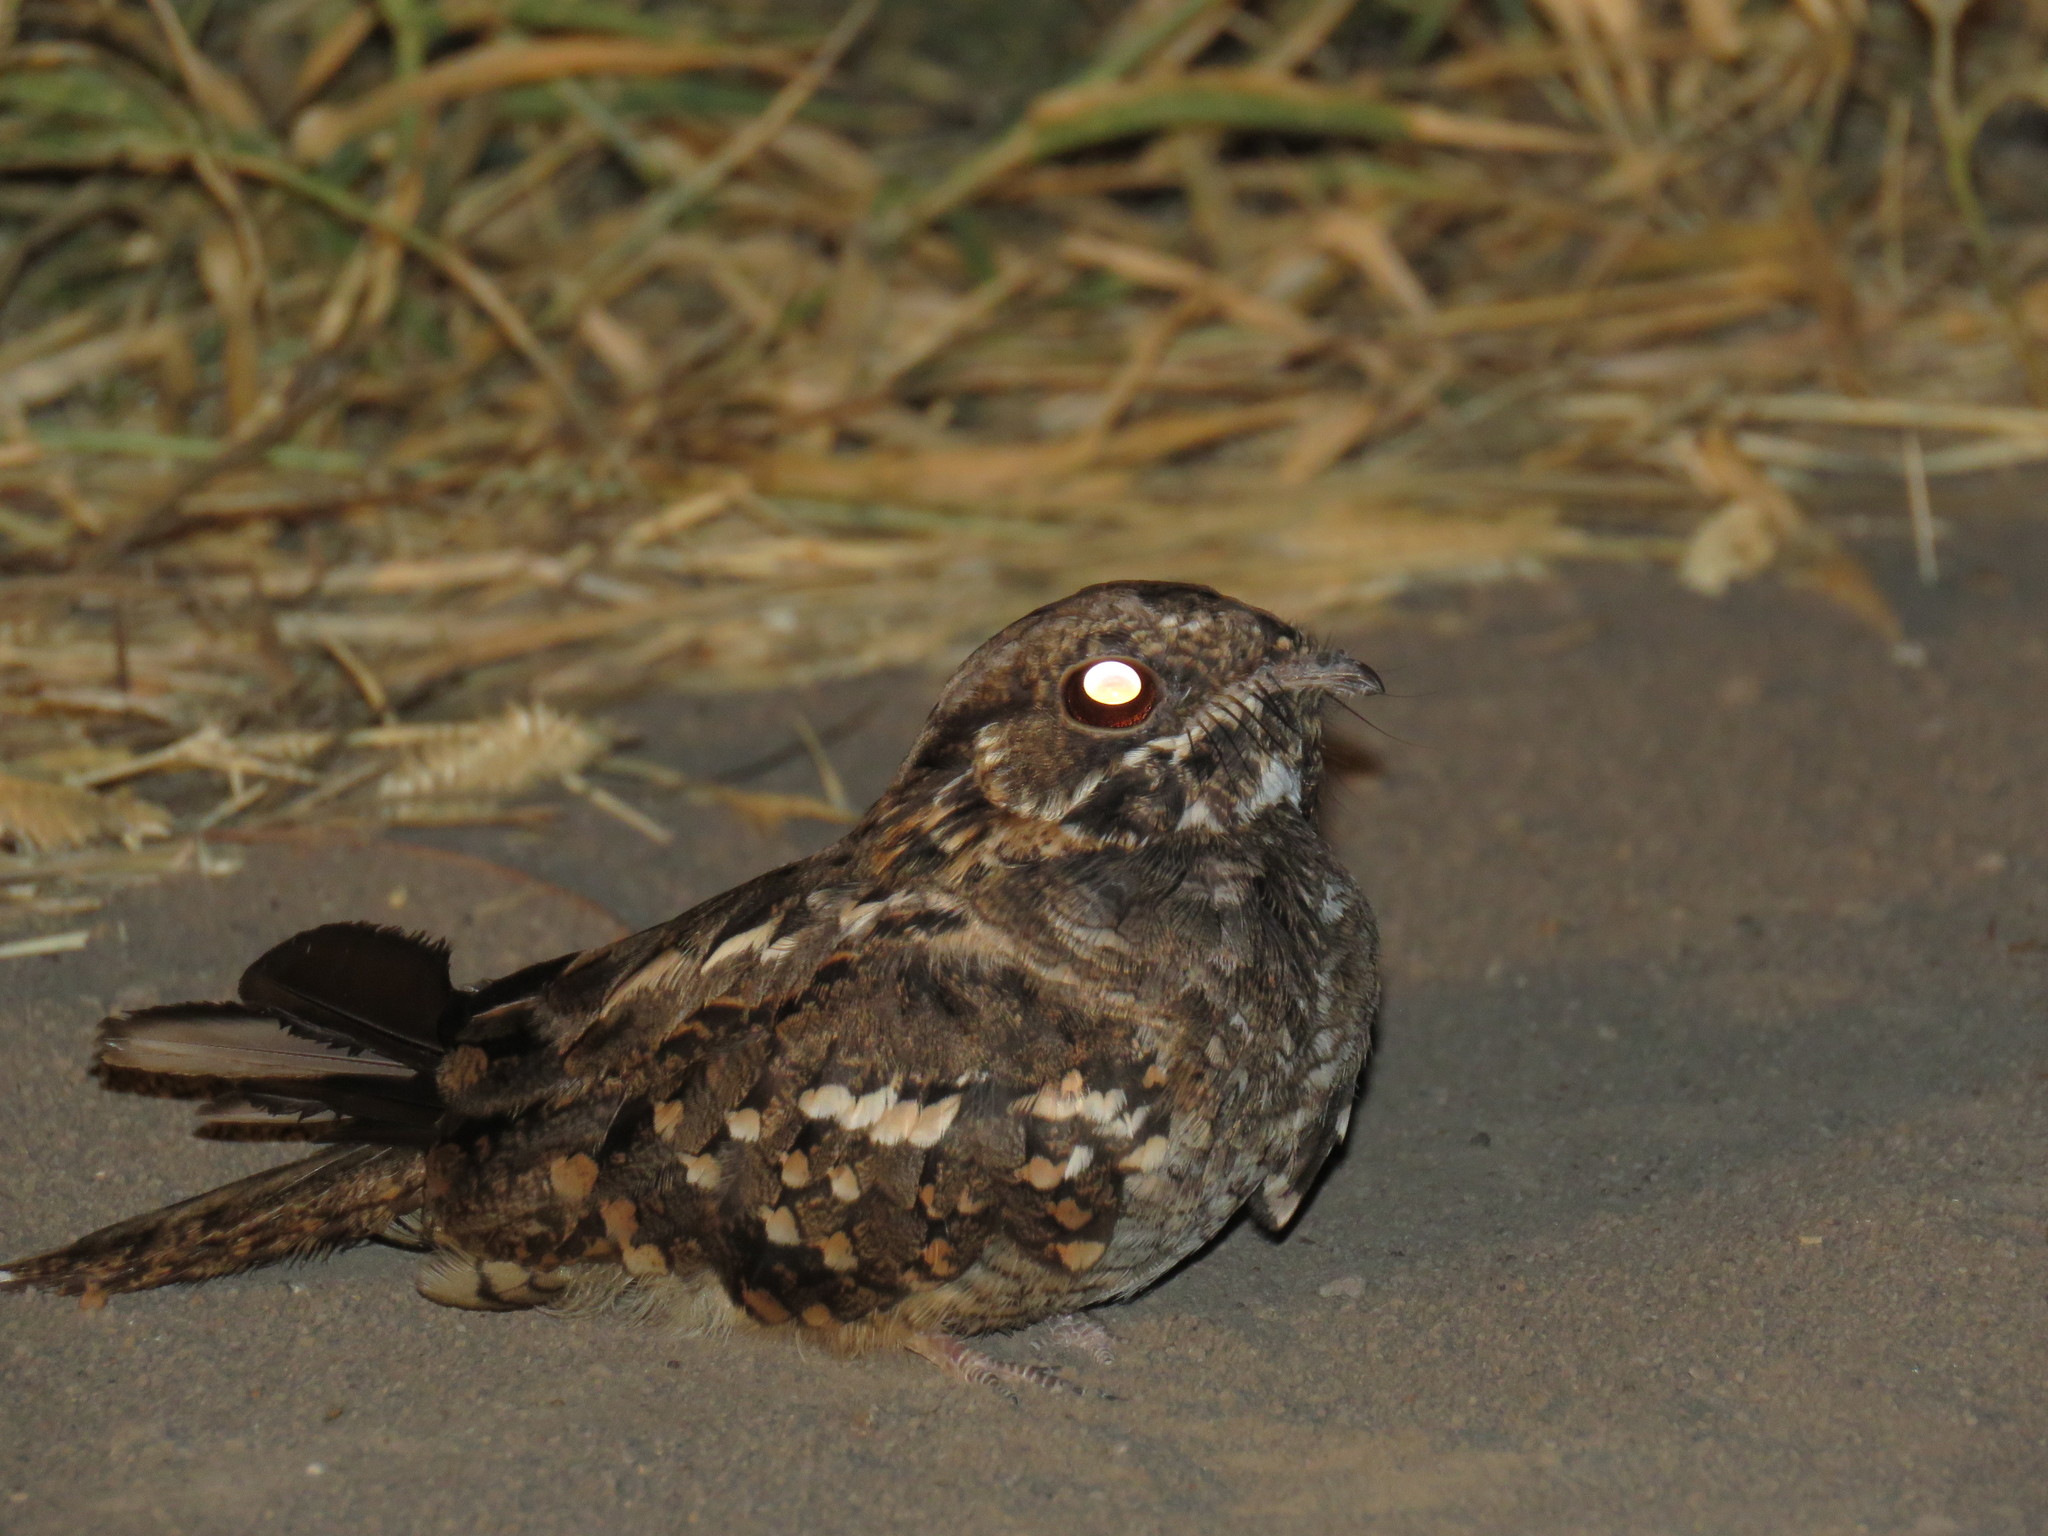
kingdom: Animalia
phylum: Chordata
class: Aves
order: Caprimulgiformes
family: Caprimulgidae
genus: Setopagis
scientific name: Setopagis parvula
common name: Little nightjar
